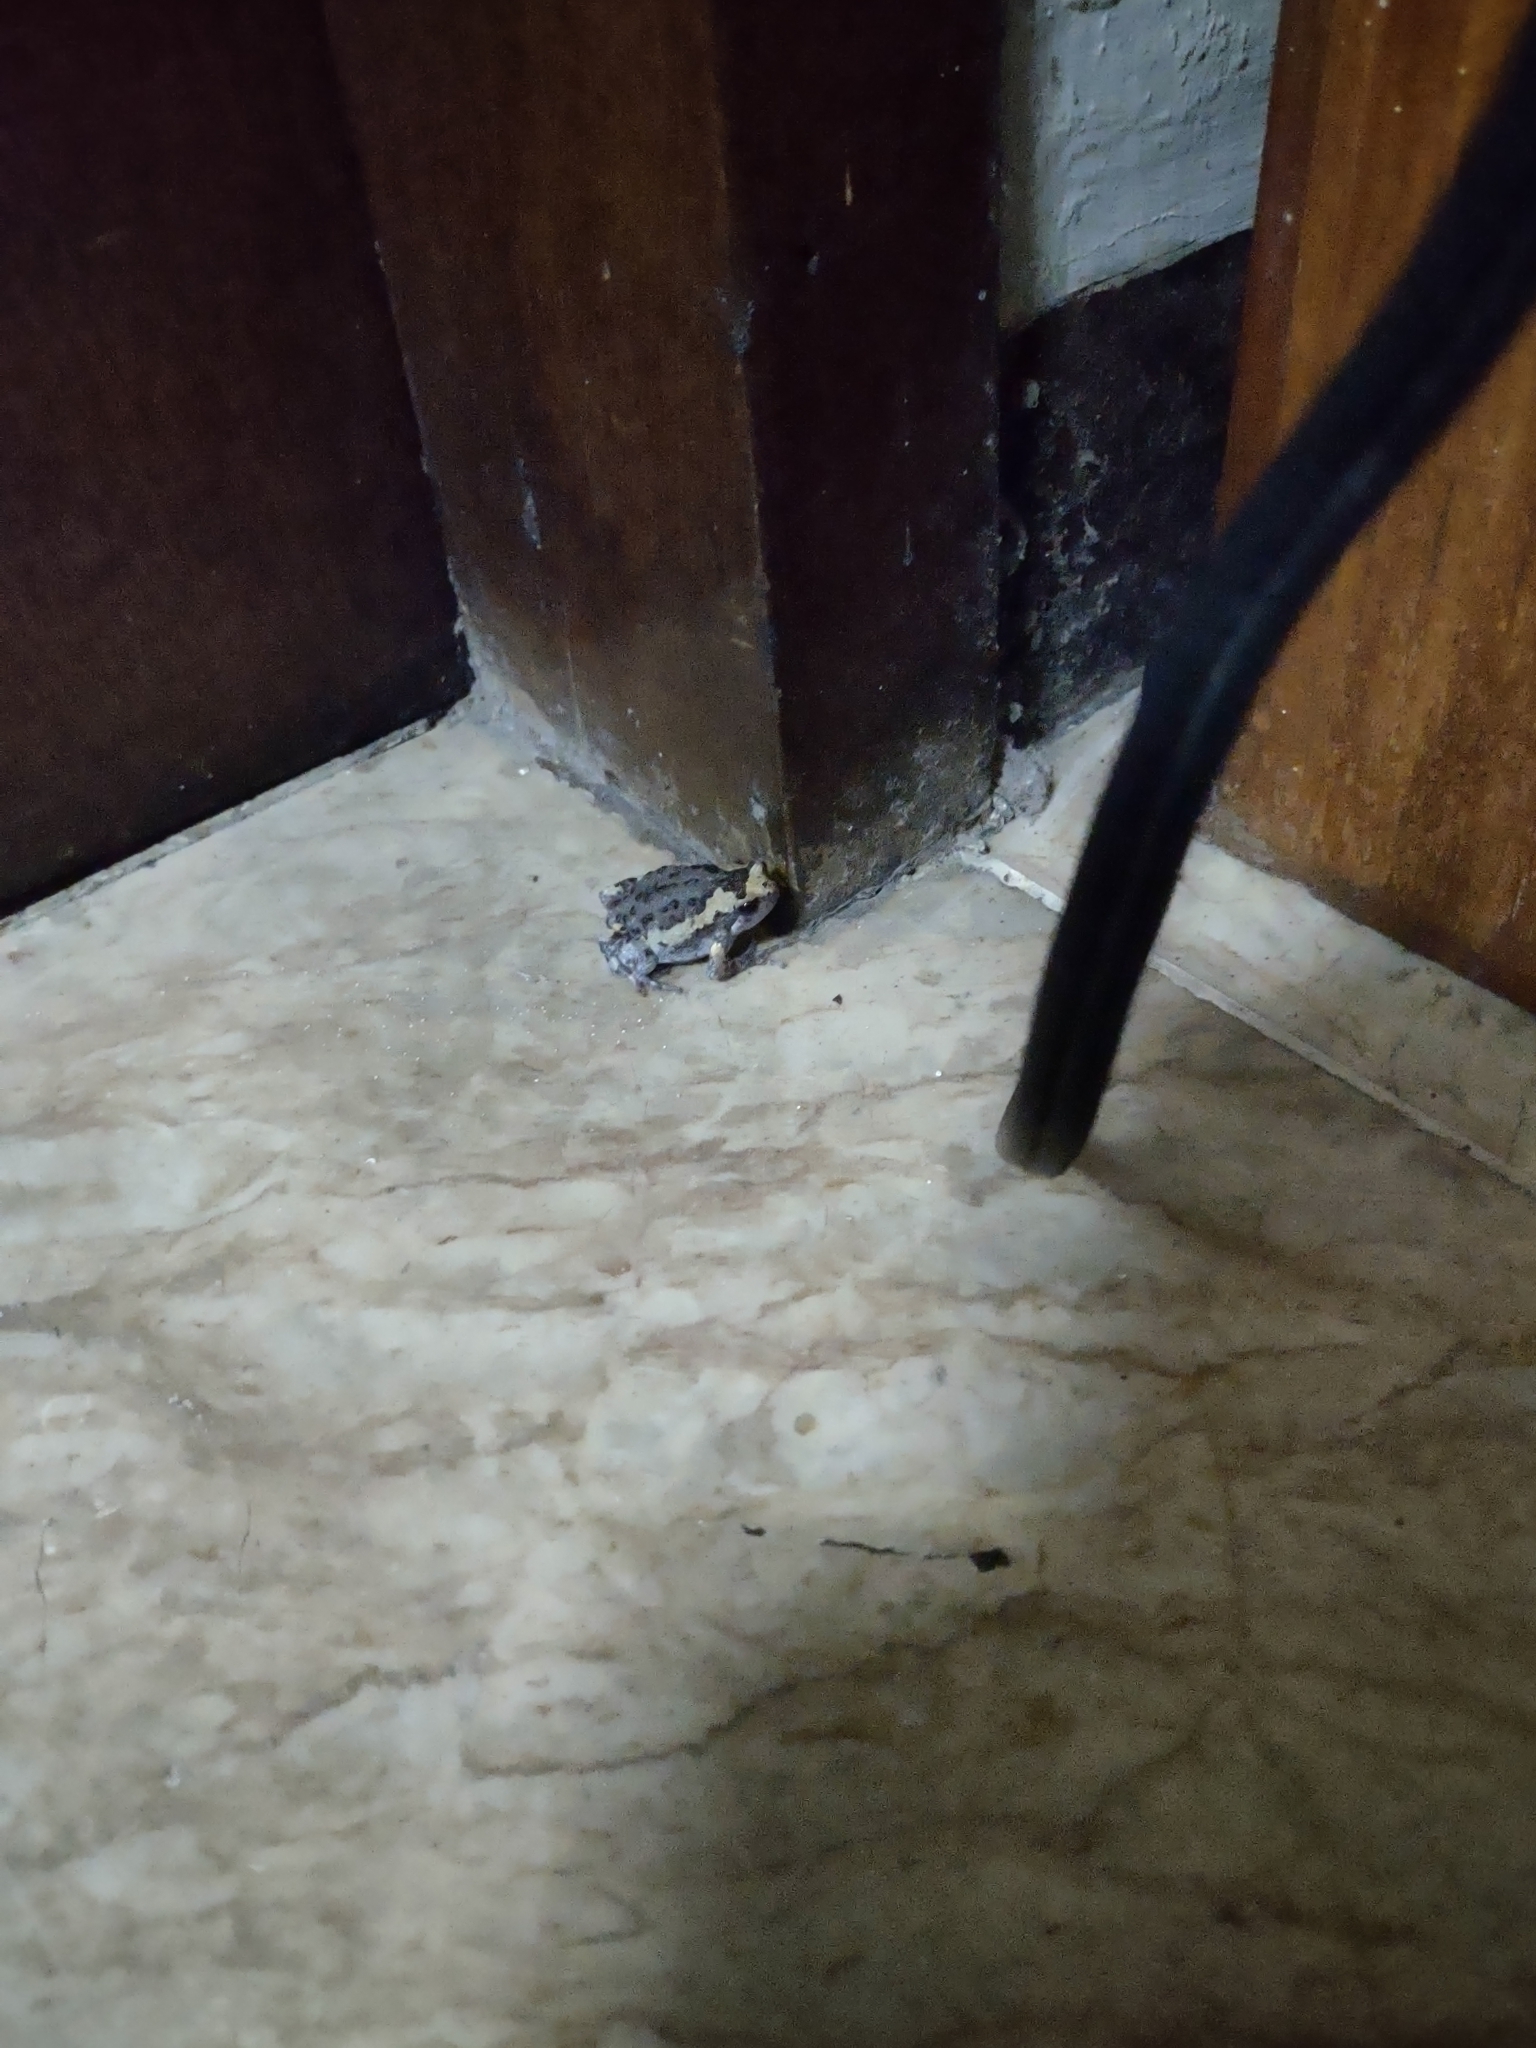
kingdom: Animalia
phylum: Chordata
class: Amphibia
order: Anura
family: Microhylidae
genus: Kaloula
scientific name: Kaloula pulchra
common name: Common,banded bullfrog
